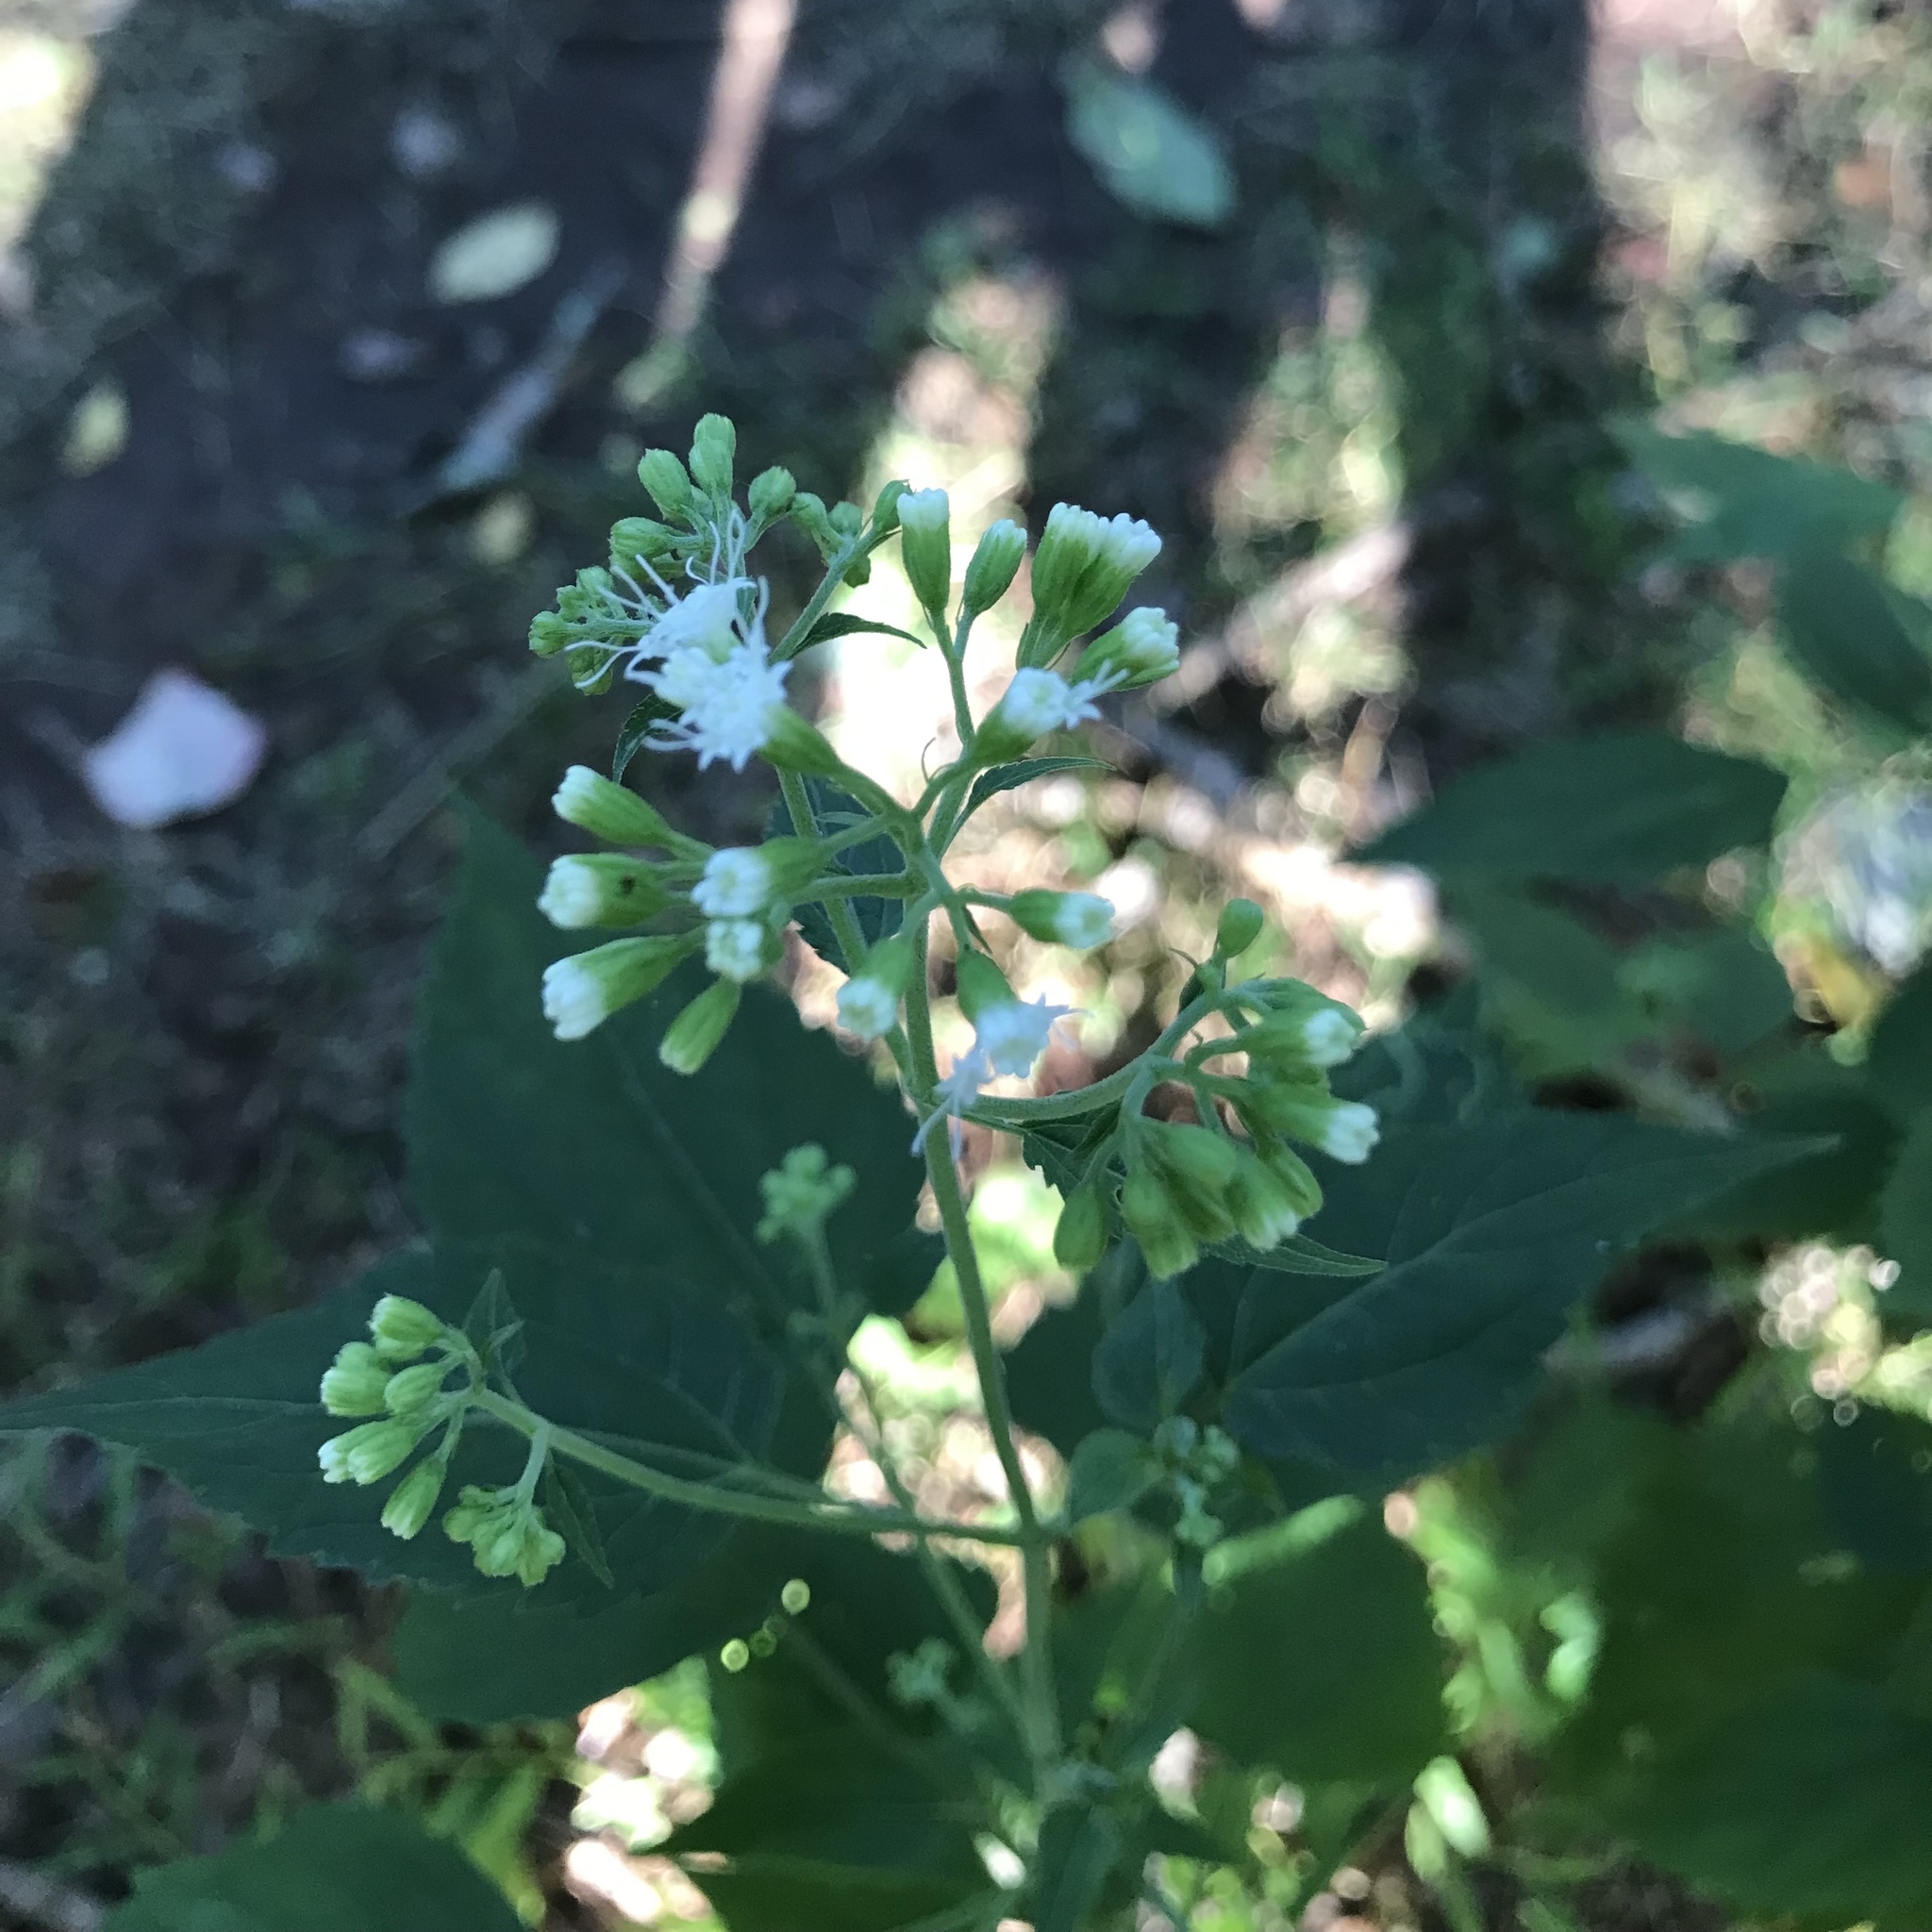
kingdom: Plantae
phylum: Tracheophyta
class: Magnoliopsida
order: Asterales
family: Asteraceae
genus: Ageratina
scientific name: Ageratina altissima
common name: White snakeroot
